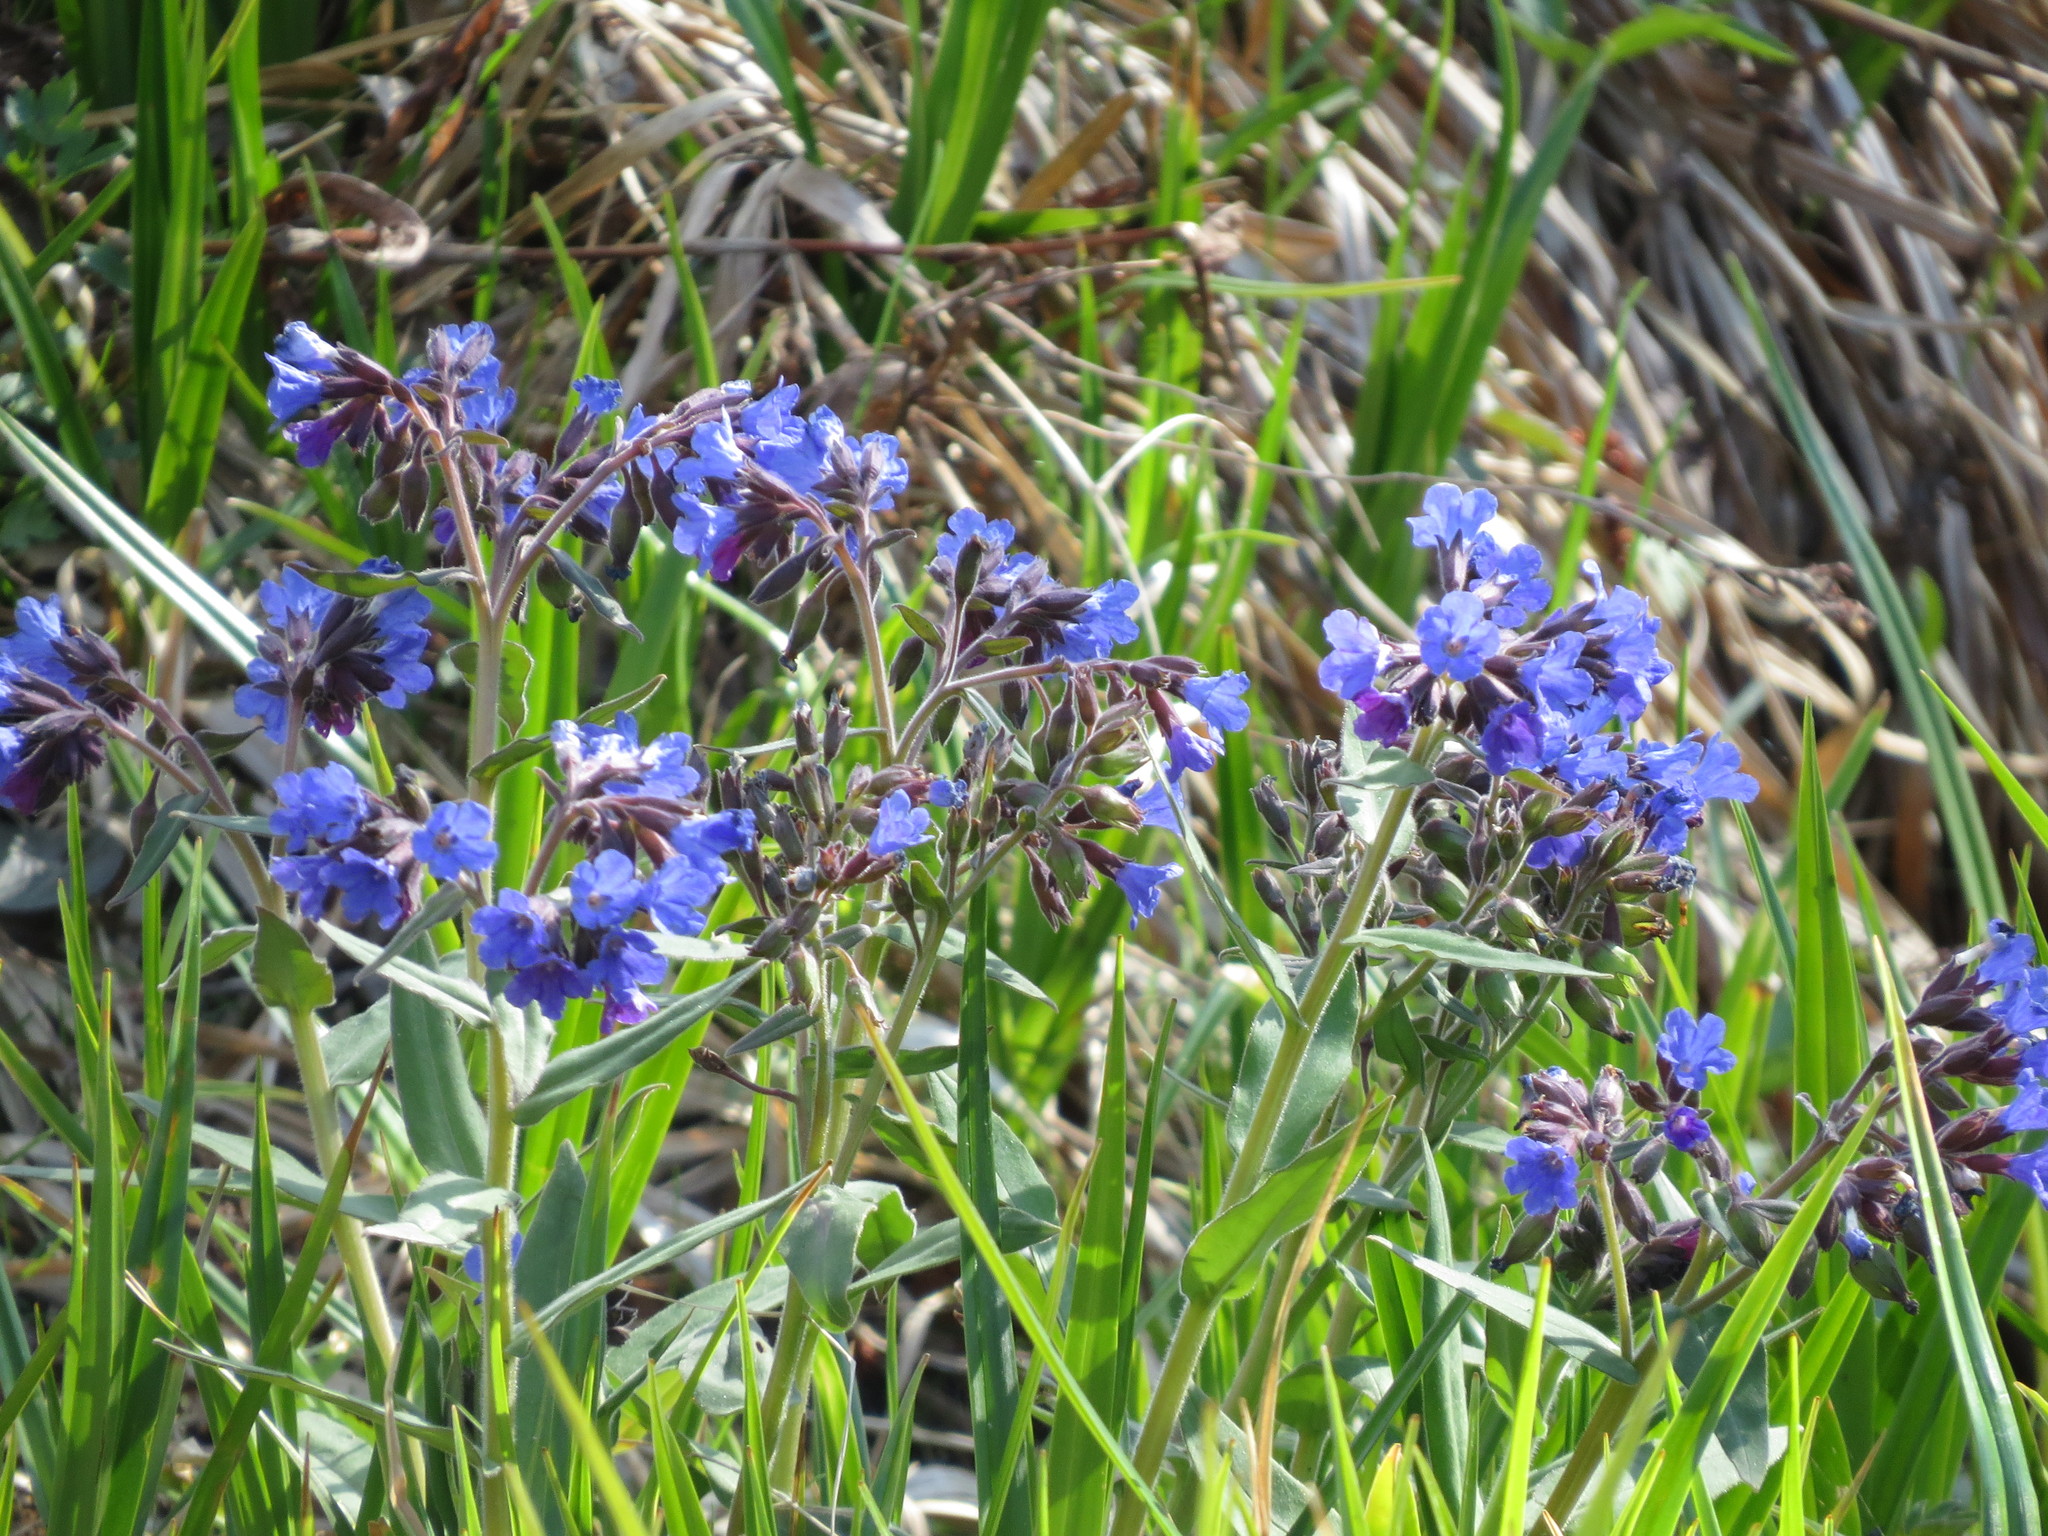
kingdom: Plantae
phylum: Tracheophyta
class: Magnoliopsida
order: Boraginales
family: Boraginaceae
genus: Pulmonaria
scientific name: Pulmonaria mollis
